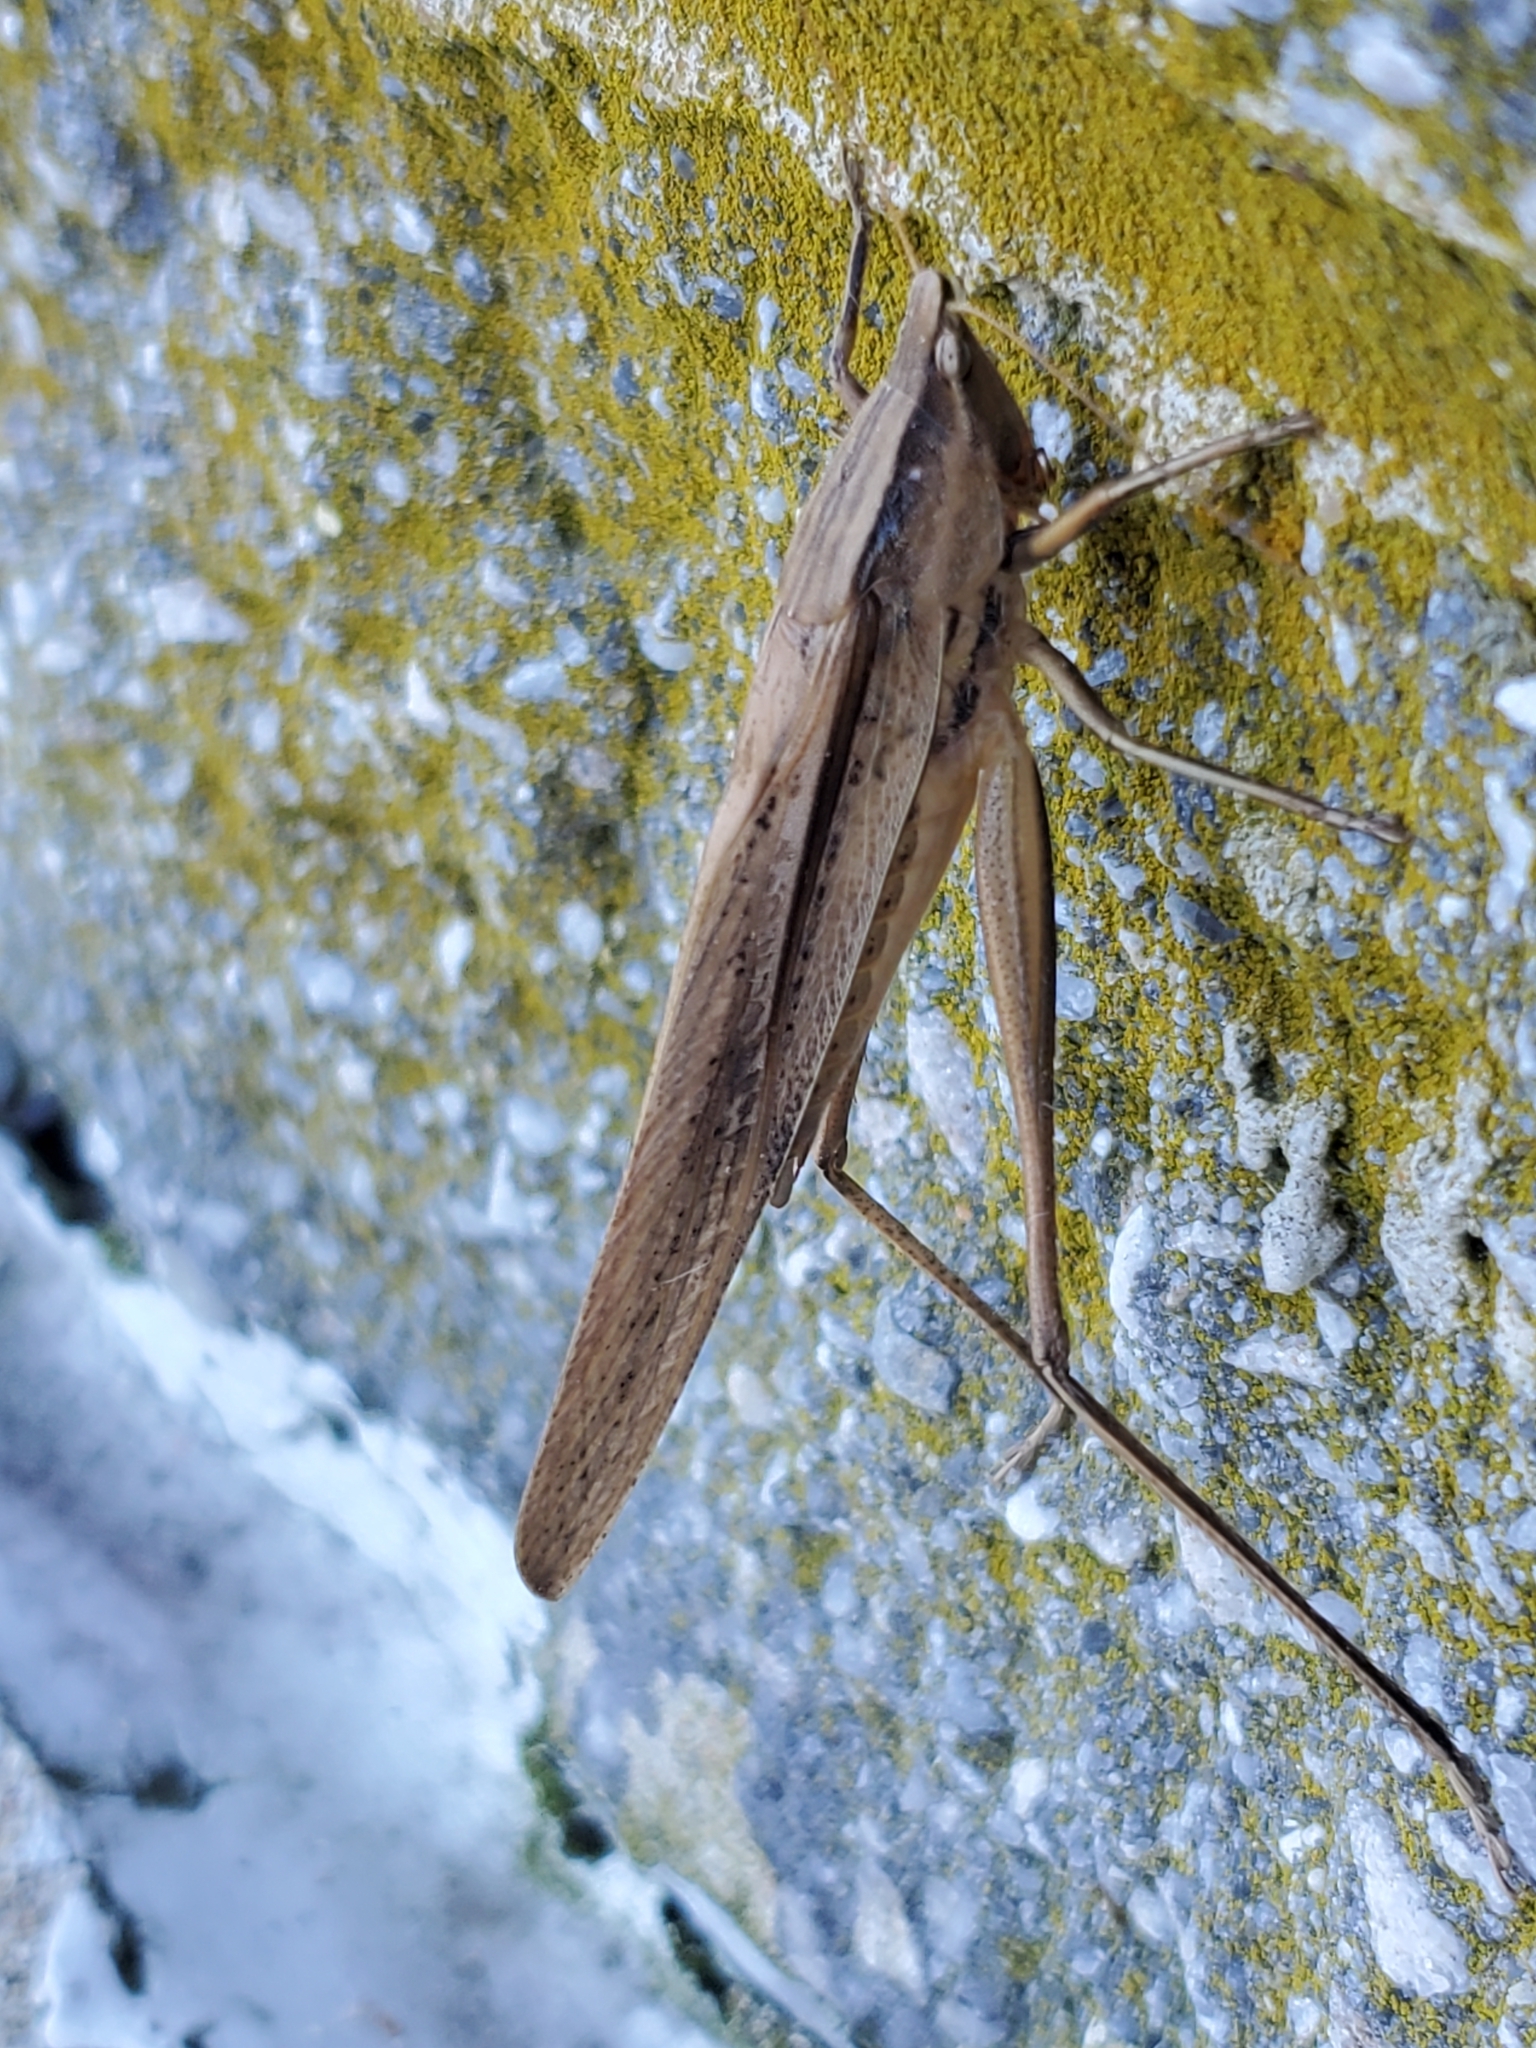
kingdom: Animalia
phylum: Arthropoda
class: Insecta
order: Orthoptera
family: Tettigoniidae
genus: Neoconocephalus
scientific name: Neoconocephalus triops
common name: Broad-tipped conehead
